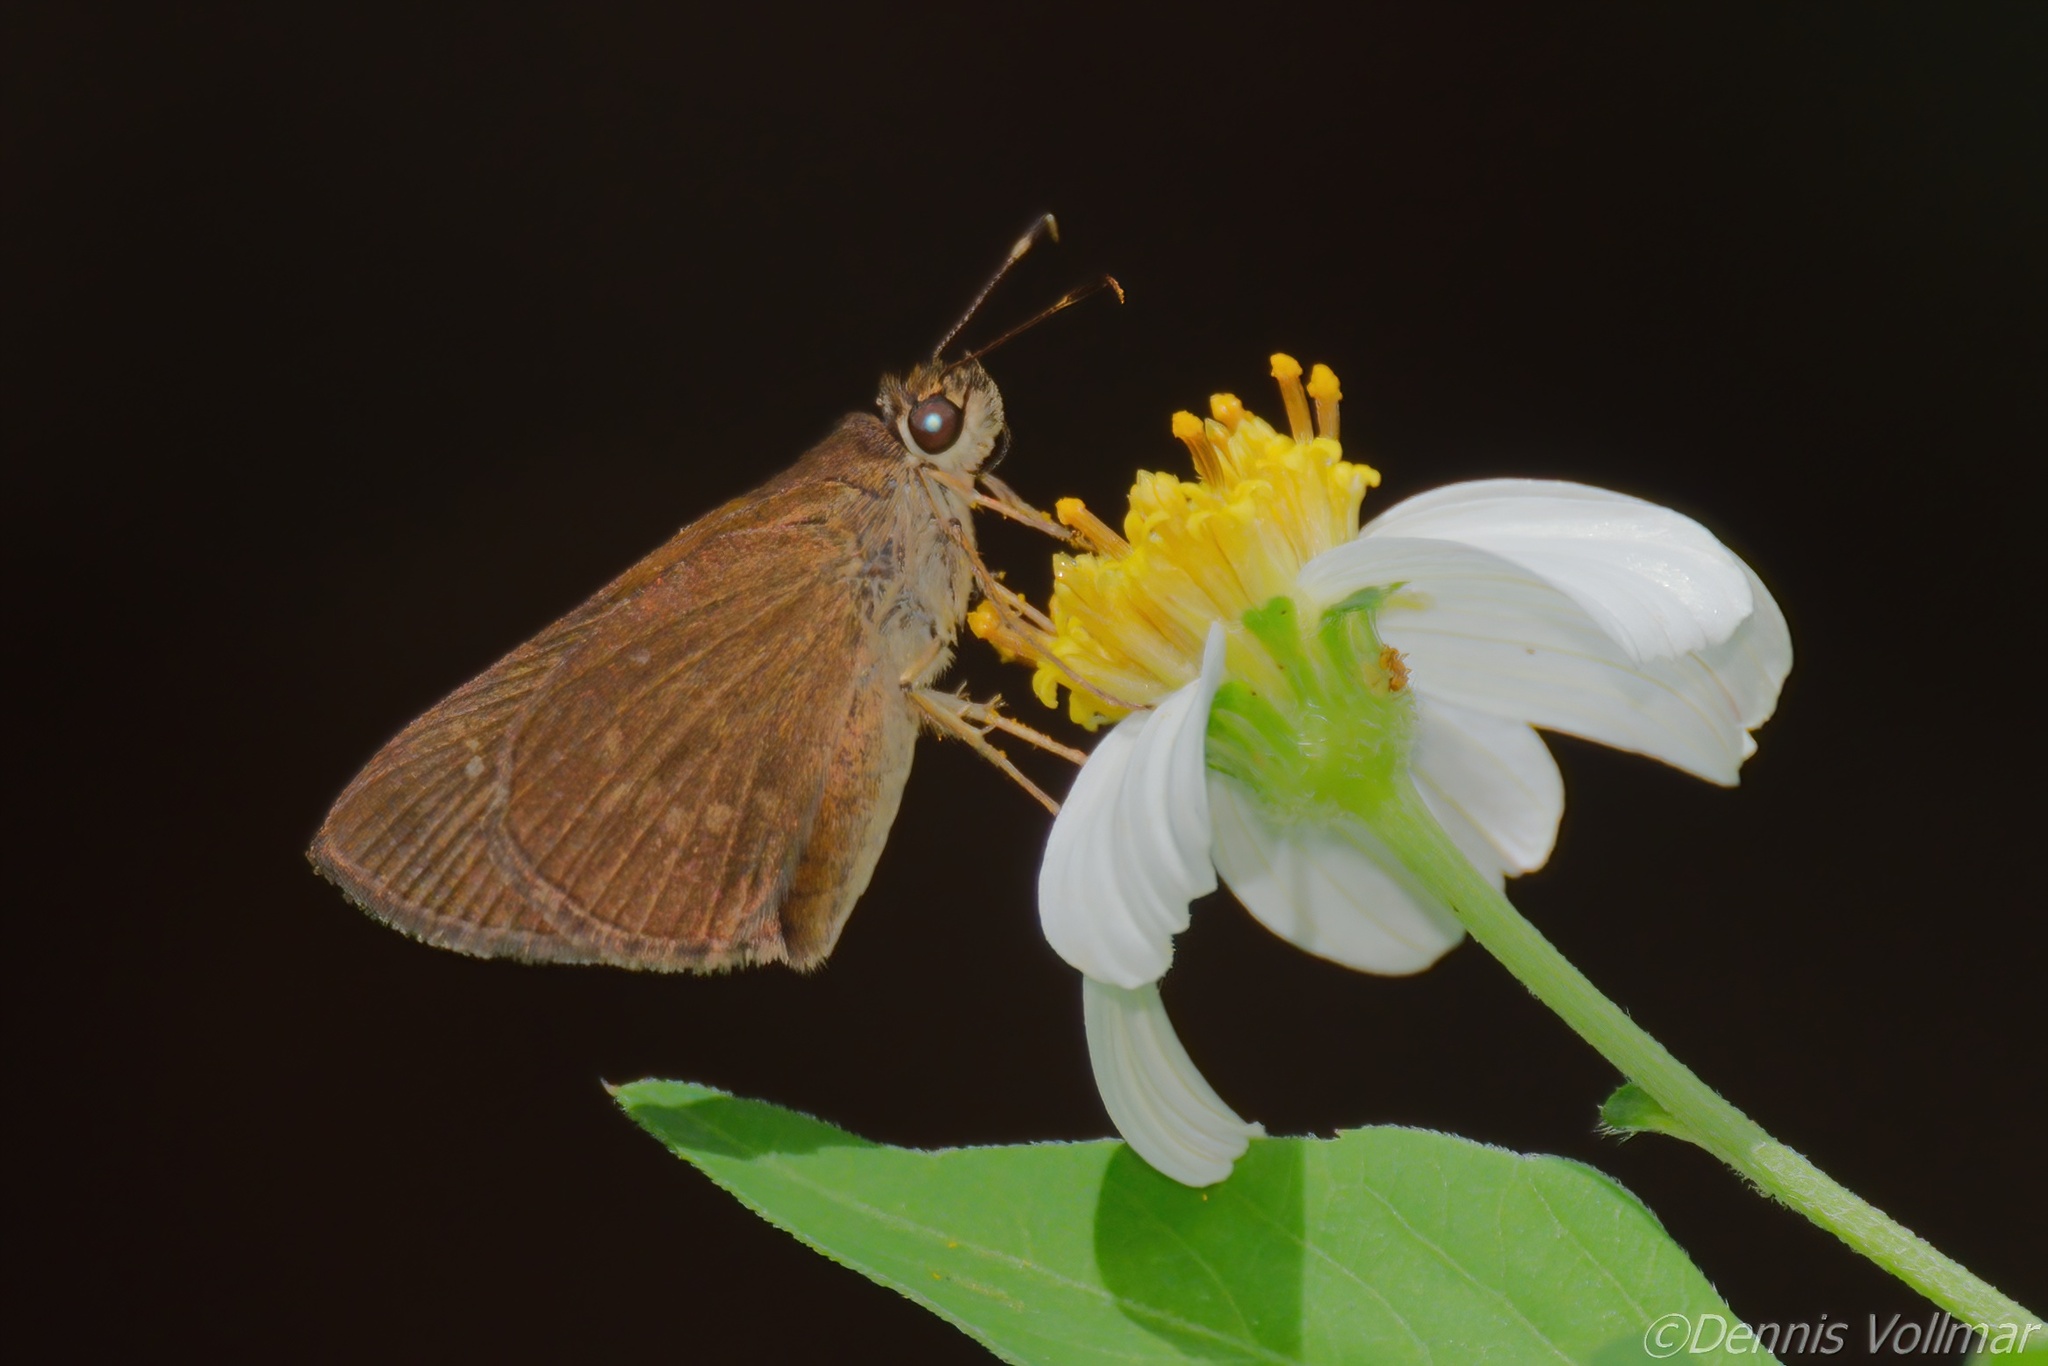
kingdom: Animalia
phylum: Arthropoda
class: Insecta
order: Lepidoptera
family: Hesperiidae
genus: Cymaenes
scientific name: Cymaenes tripunctus
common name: Dingy dotted skipper
